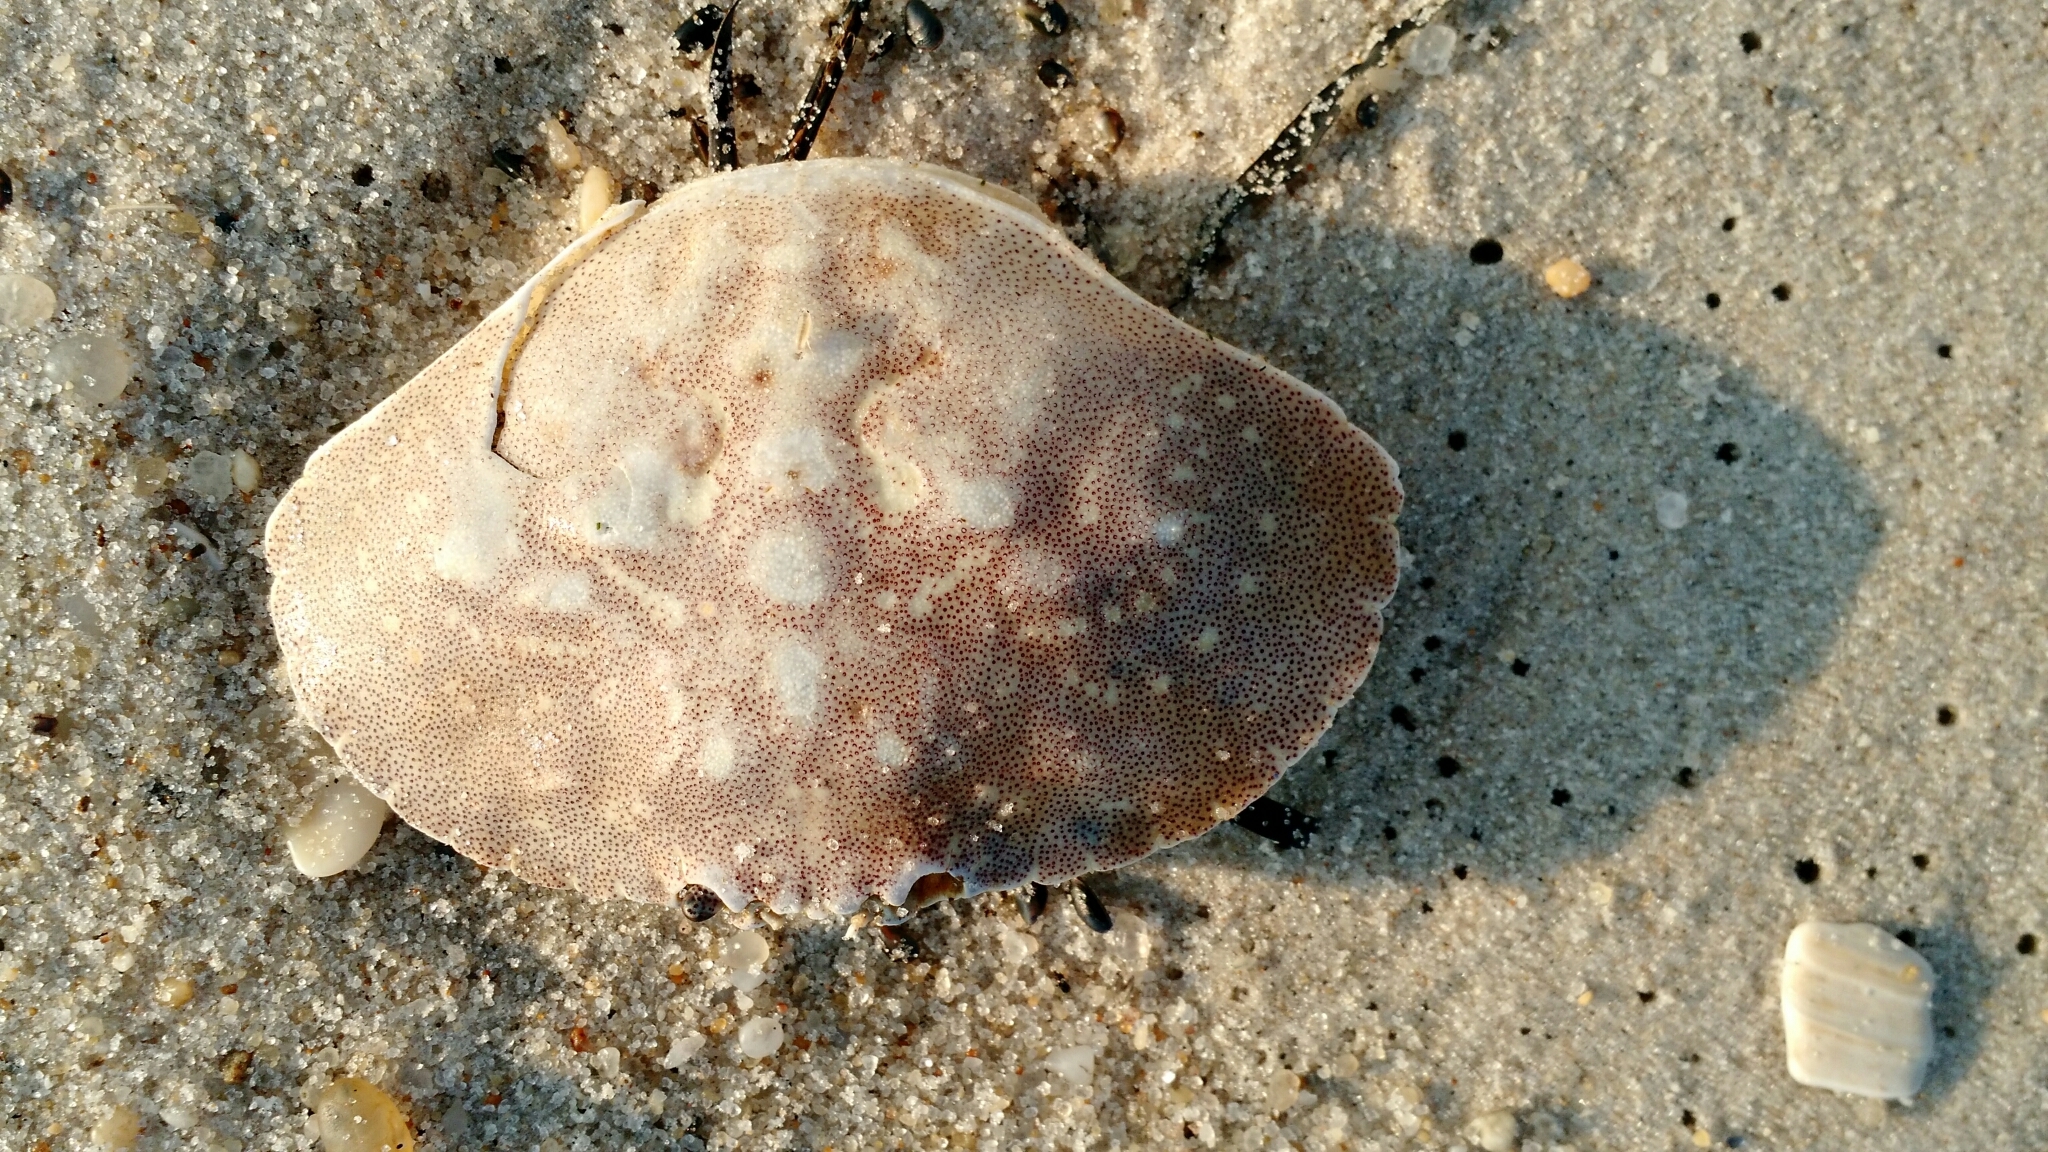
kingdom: Animalia
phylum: Arthropoda
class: Malacostraca
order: Decapoda
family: Cancridae
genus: Cancer
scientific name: Cancer irroratus
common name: Atlantic rock crab
